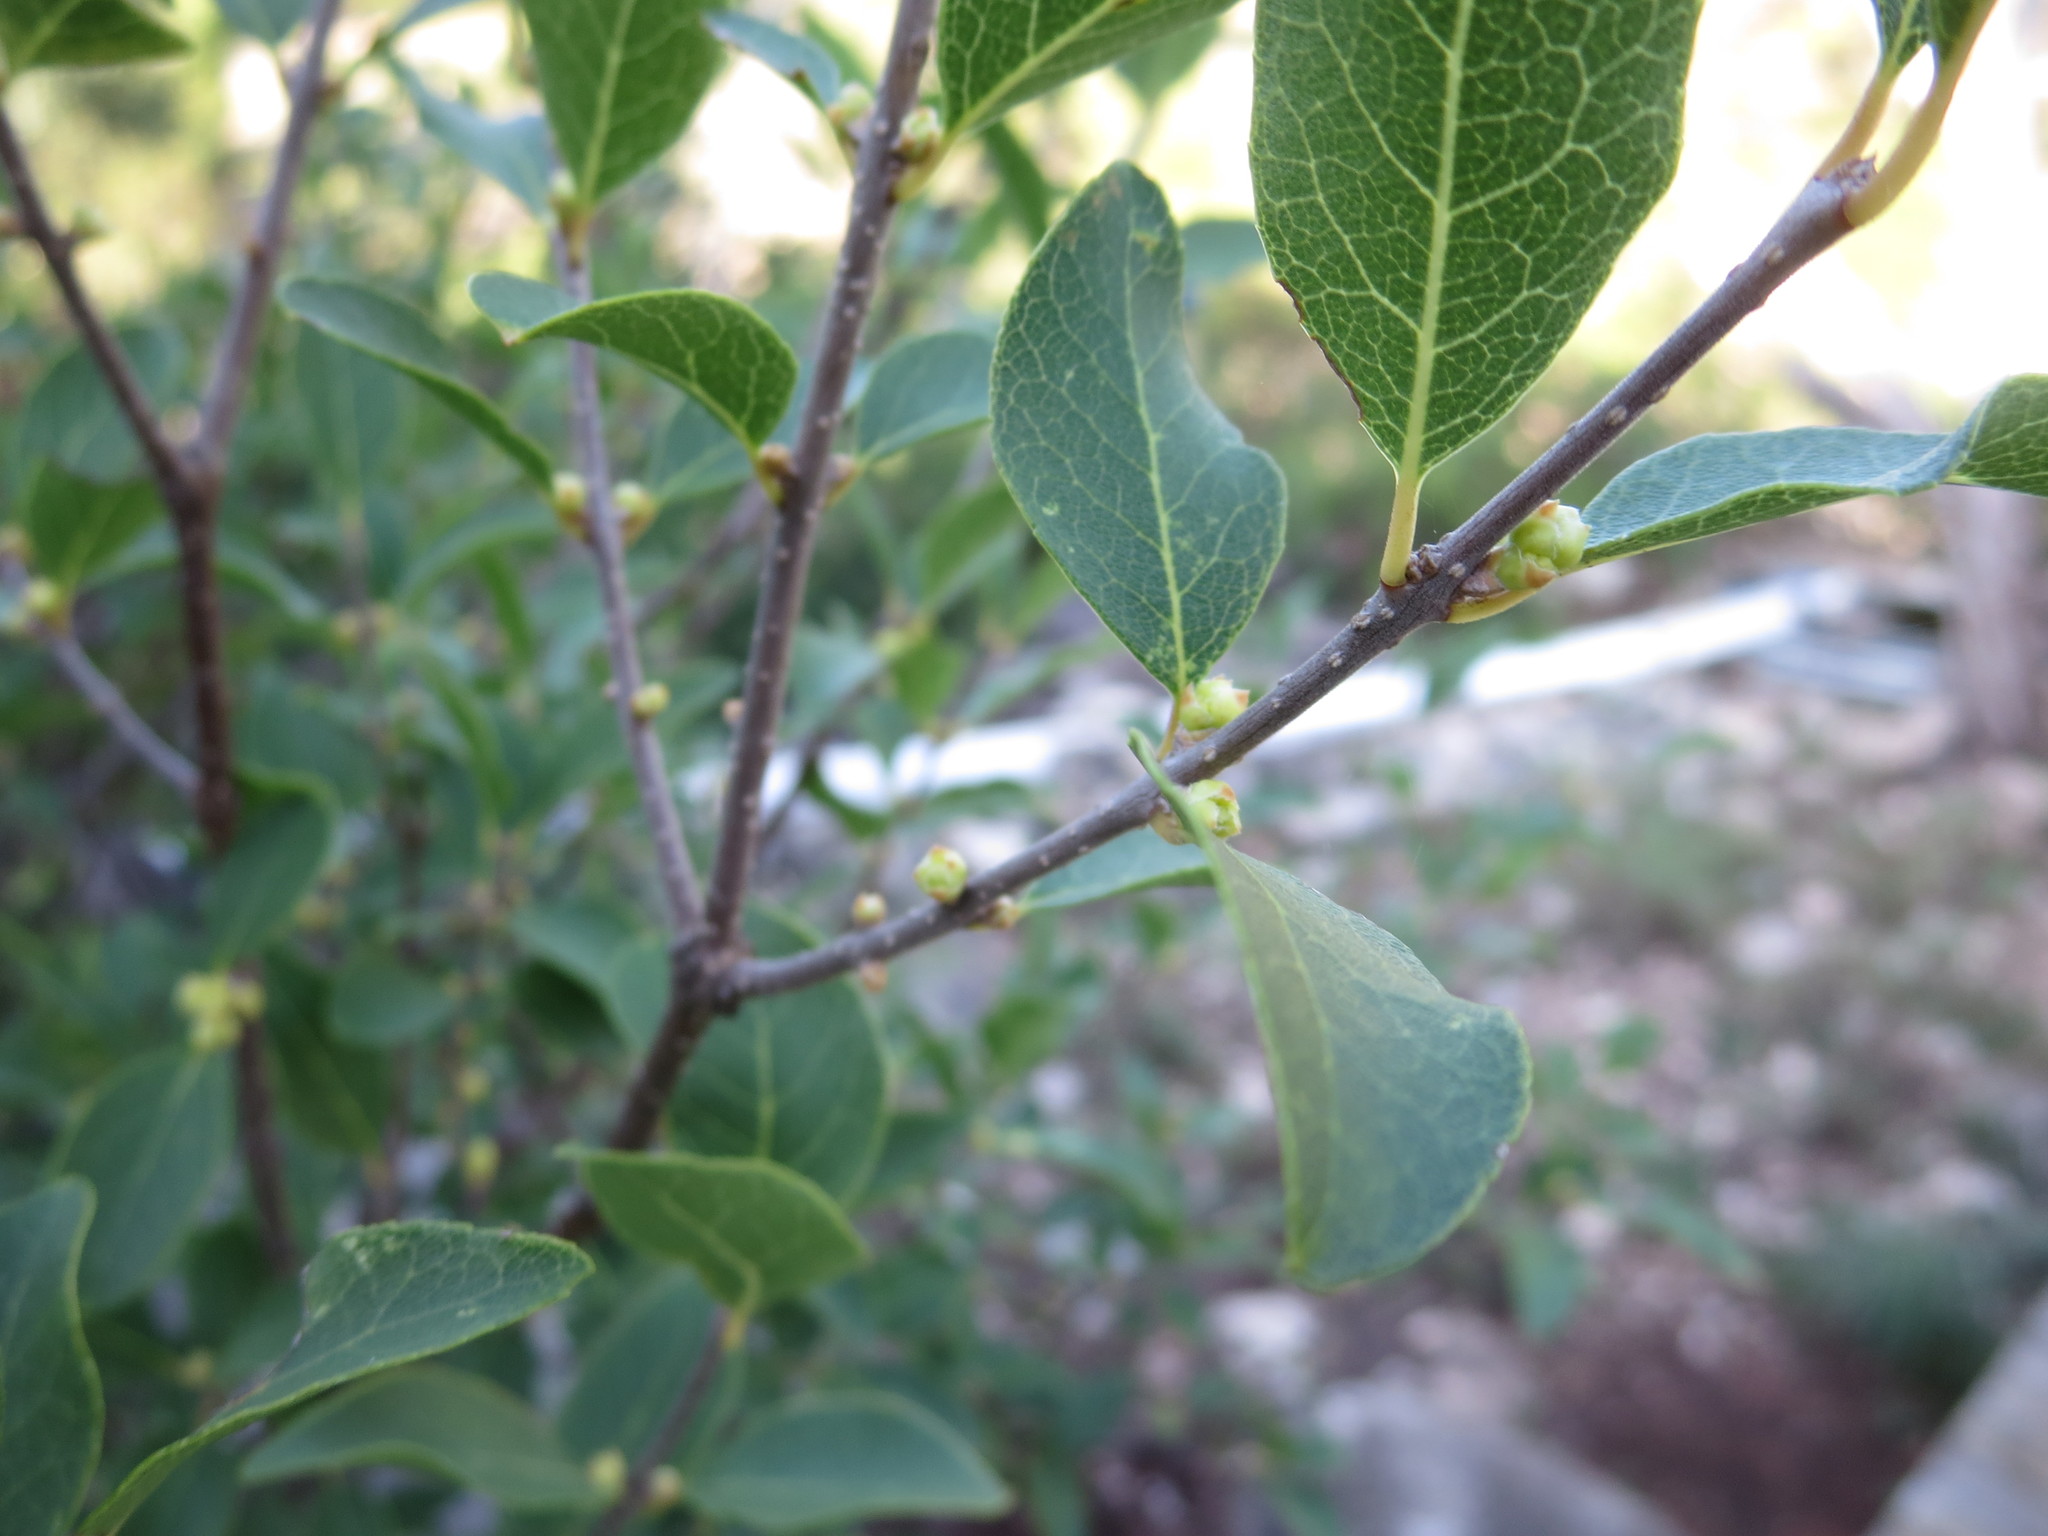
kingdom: Plantae
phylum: Tracheophyta
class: Magnoliopsida
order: Lamiales
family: Oleaceae
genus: Forestiera
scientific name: Forestiera reticulata
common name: Netleaf swamp-privet
